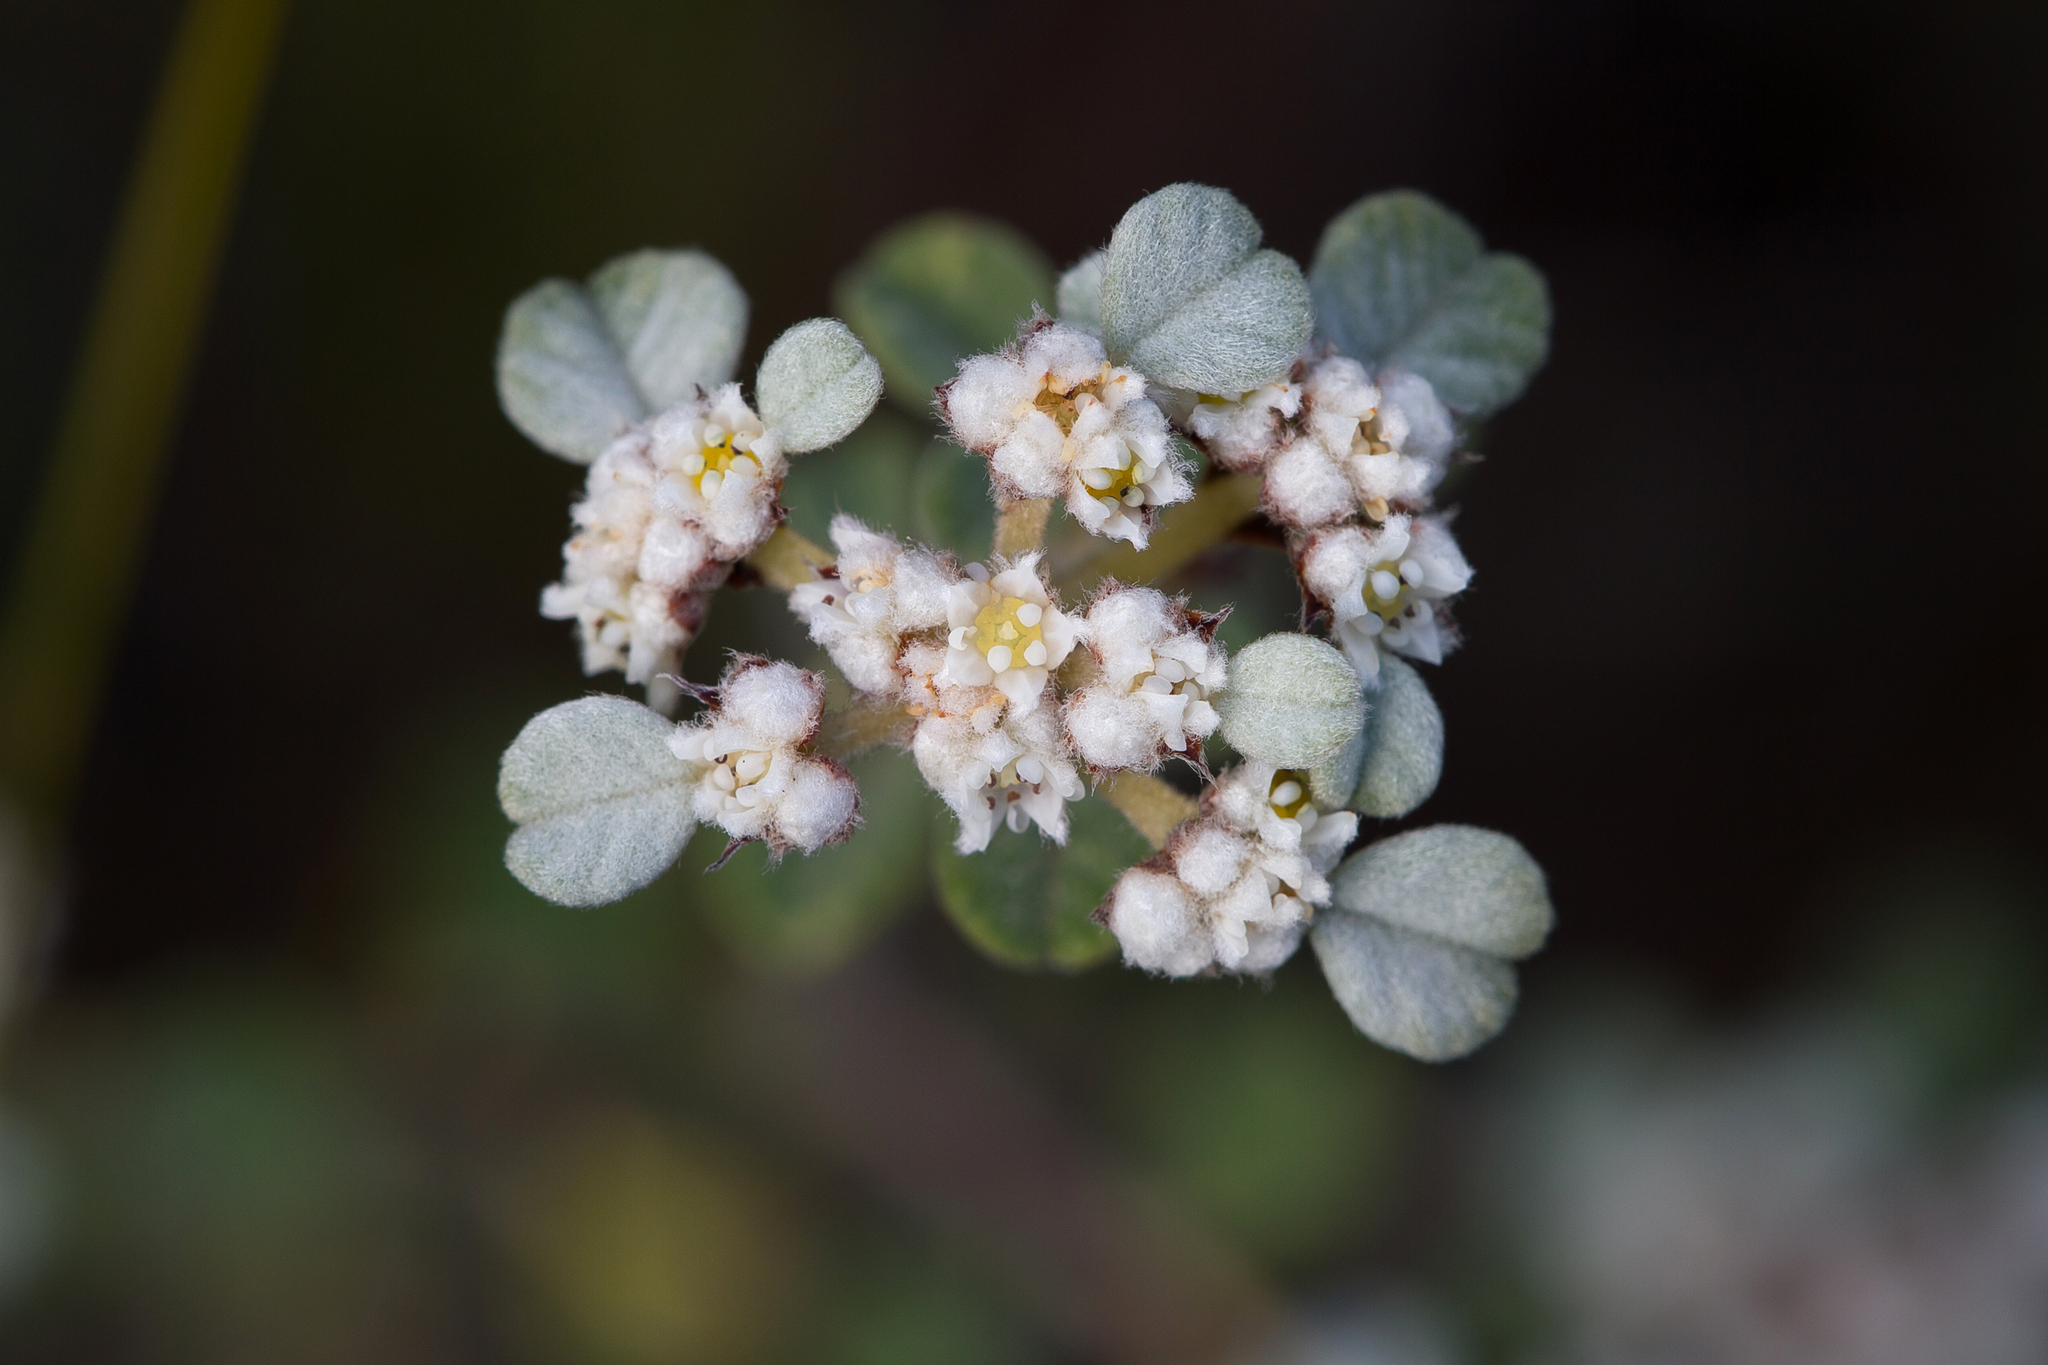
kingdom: Plantae
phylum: Tracheophyta
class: Magnoliopsida
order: Rosales
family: Rhamnaceae
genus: Spyridium
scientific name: Spyridium parvifolium
